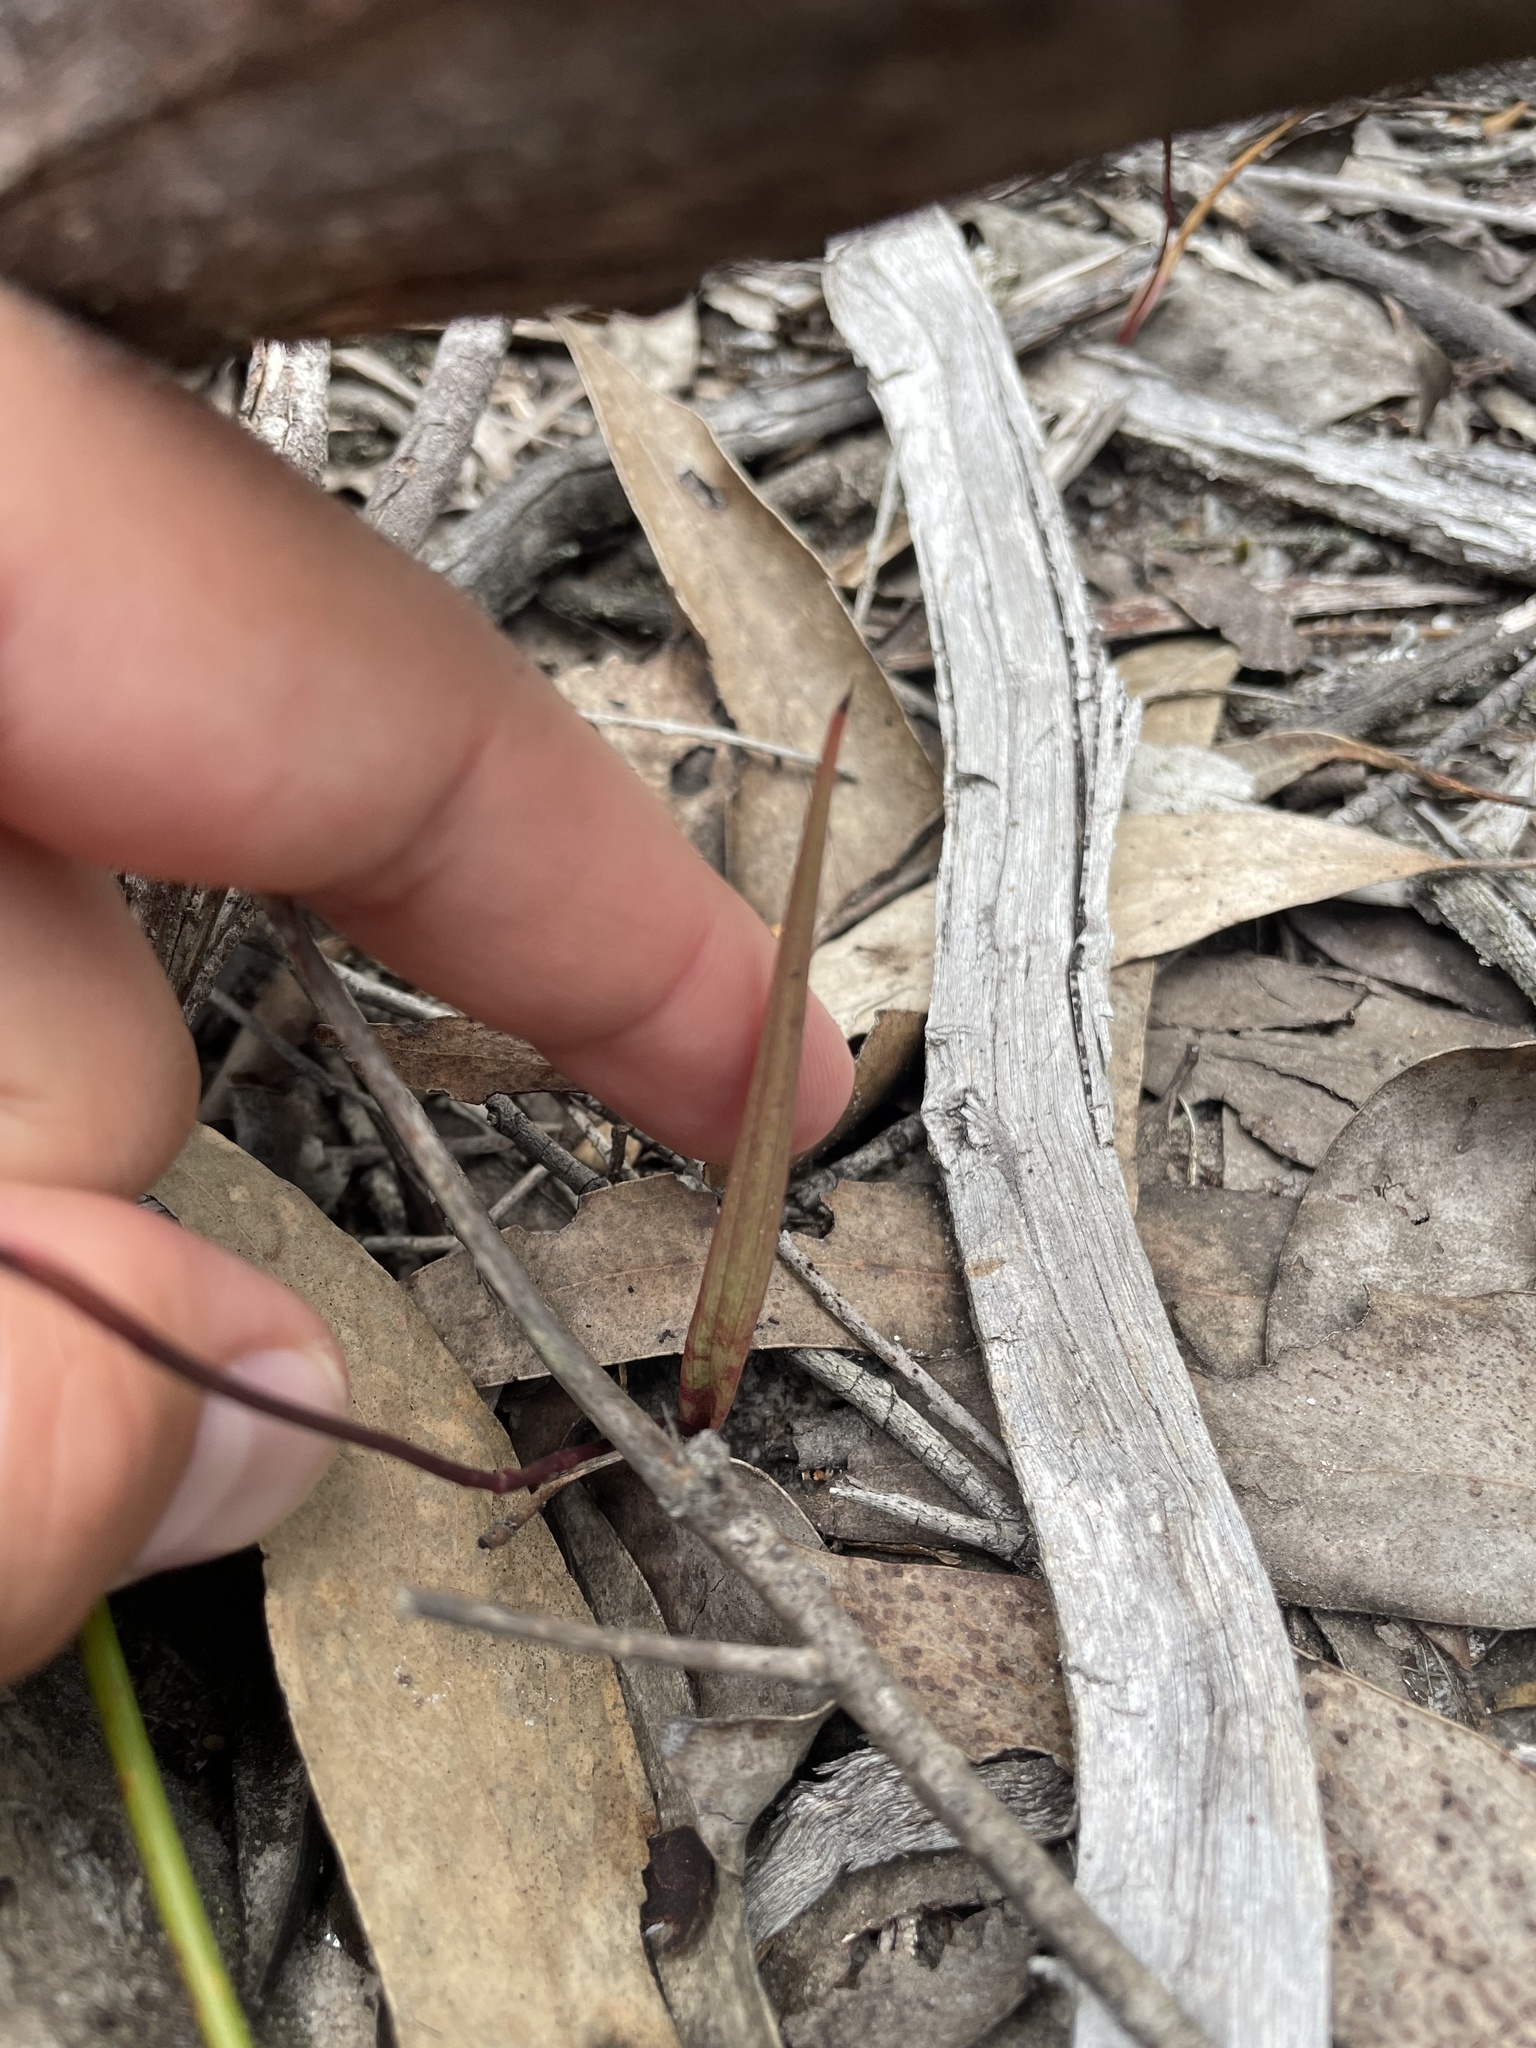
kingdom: Plantae
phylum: Tracheophyta
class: Liliopsida
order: Asparagales
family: Orchidaceae
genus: Caleana
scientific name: Caleana major
